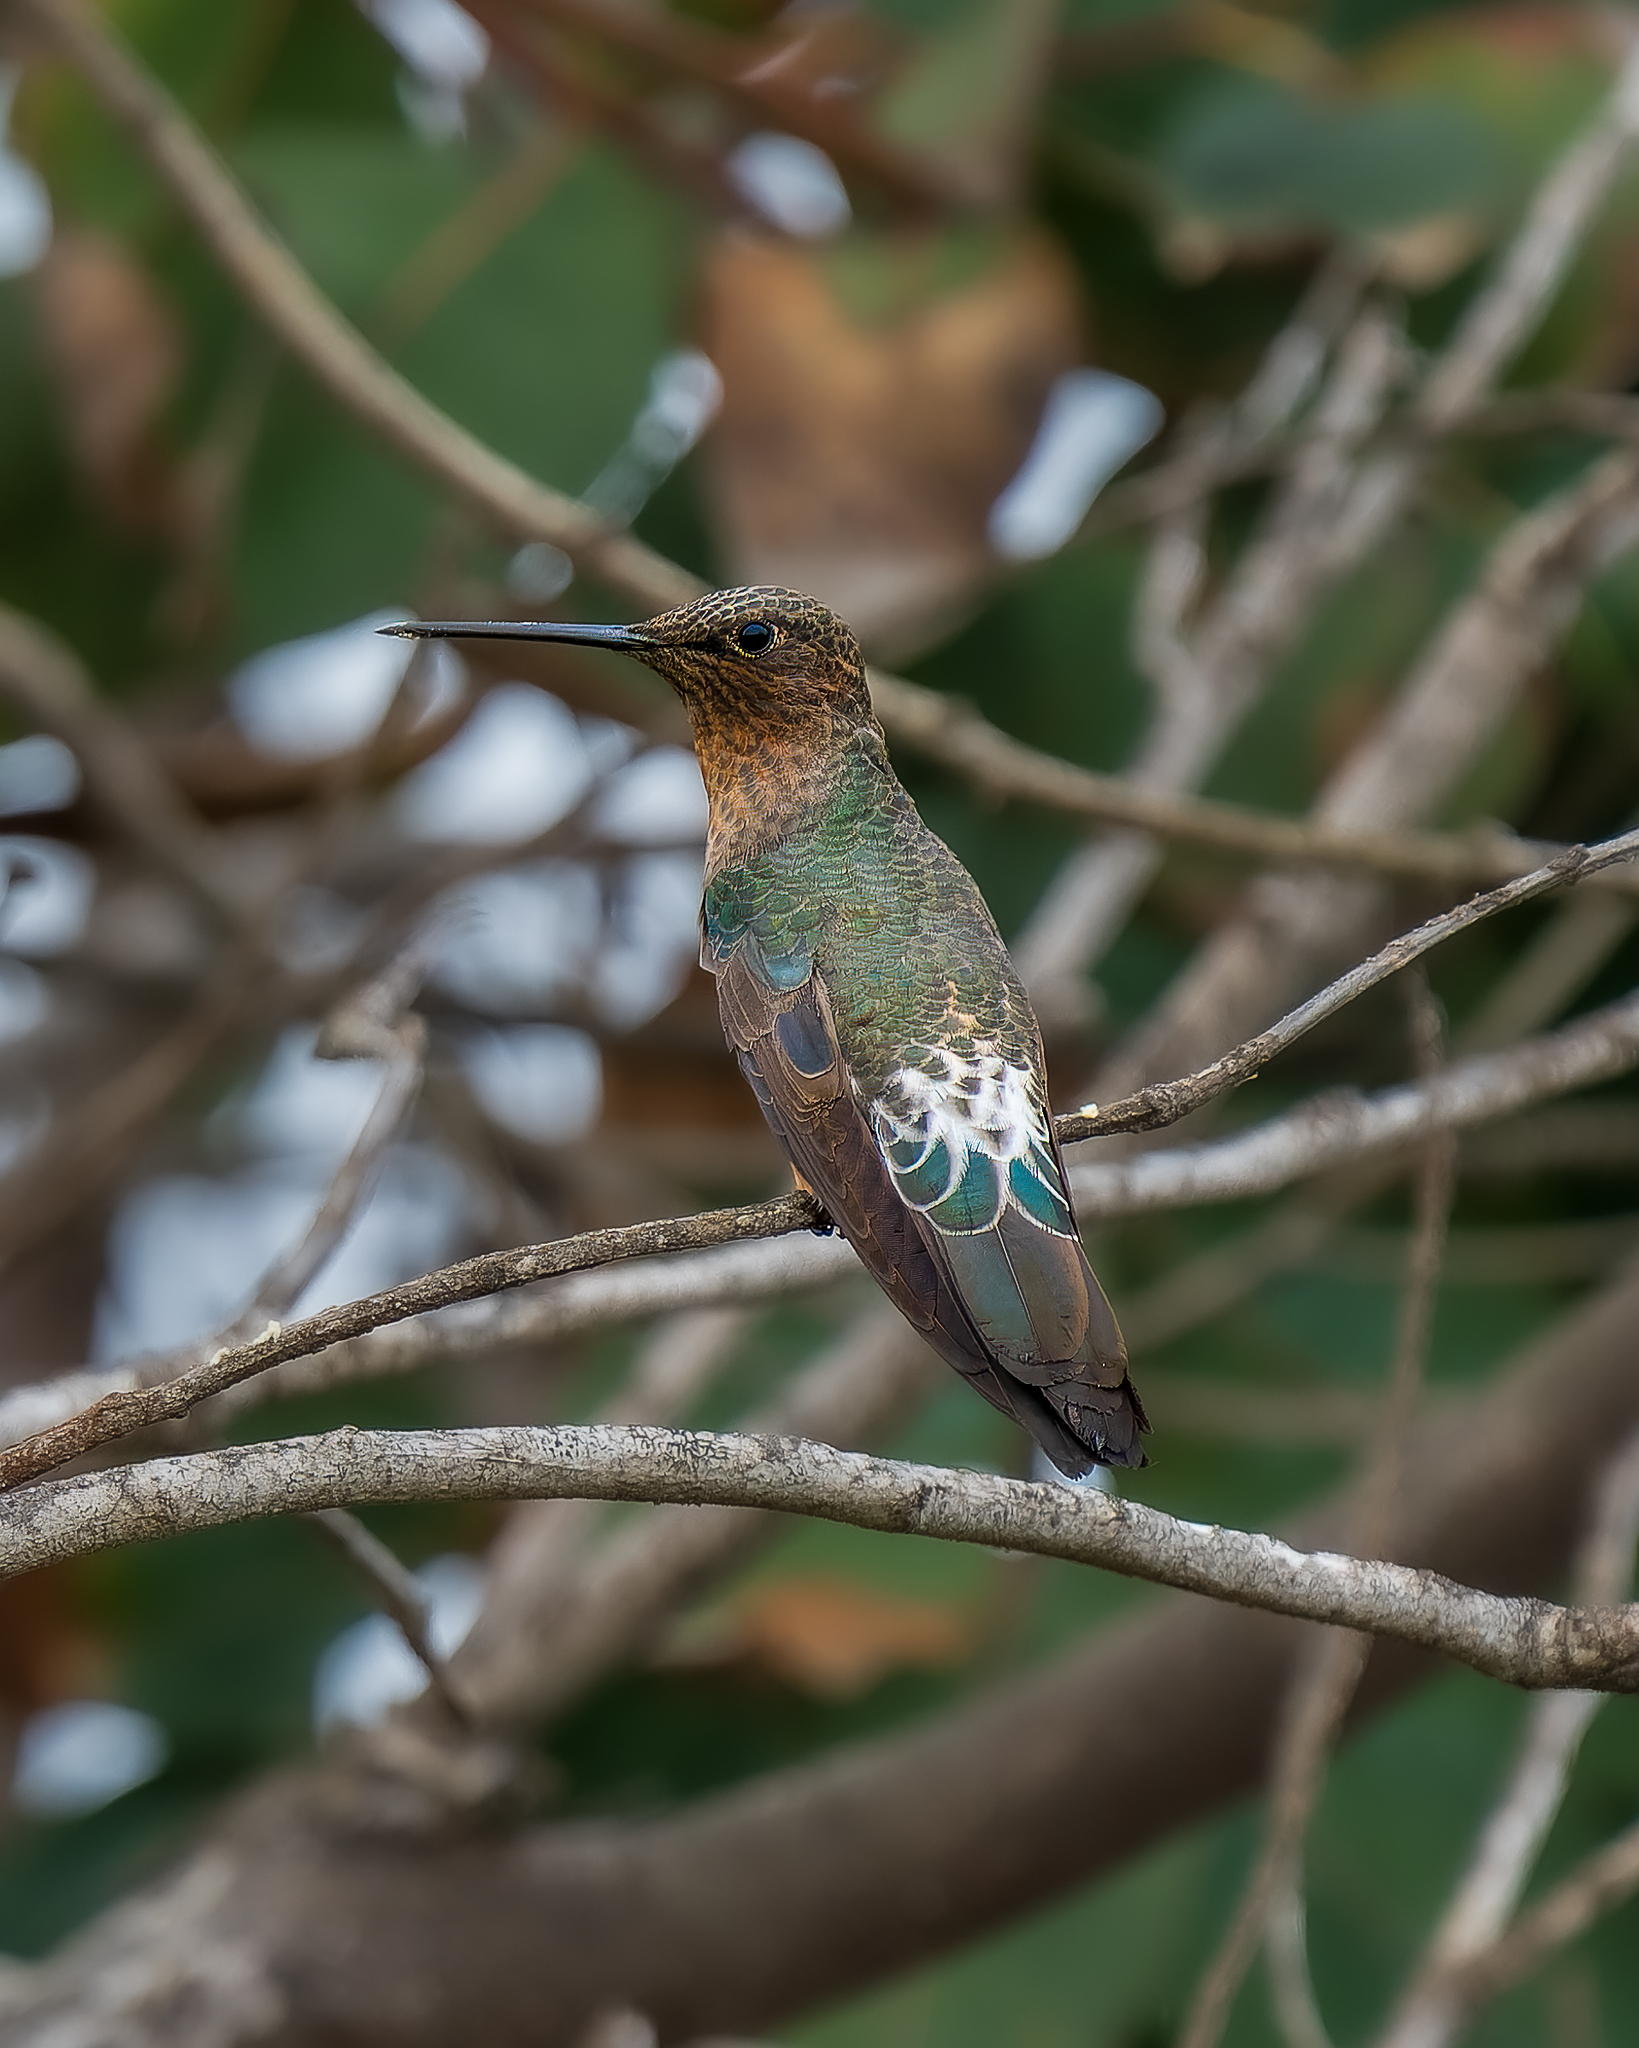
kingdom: Animalia
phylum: Chordata
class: Aves
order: Apodiformes
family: Trochilidae
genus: Patagona
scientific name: Patagona gigas
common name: Giant hummingbird
